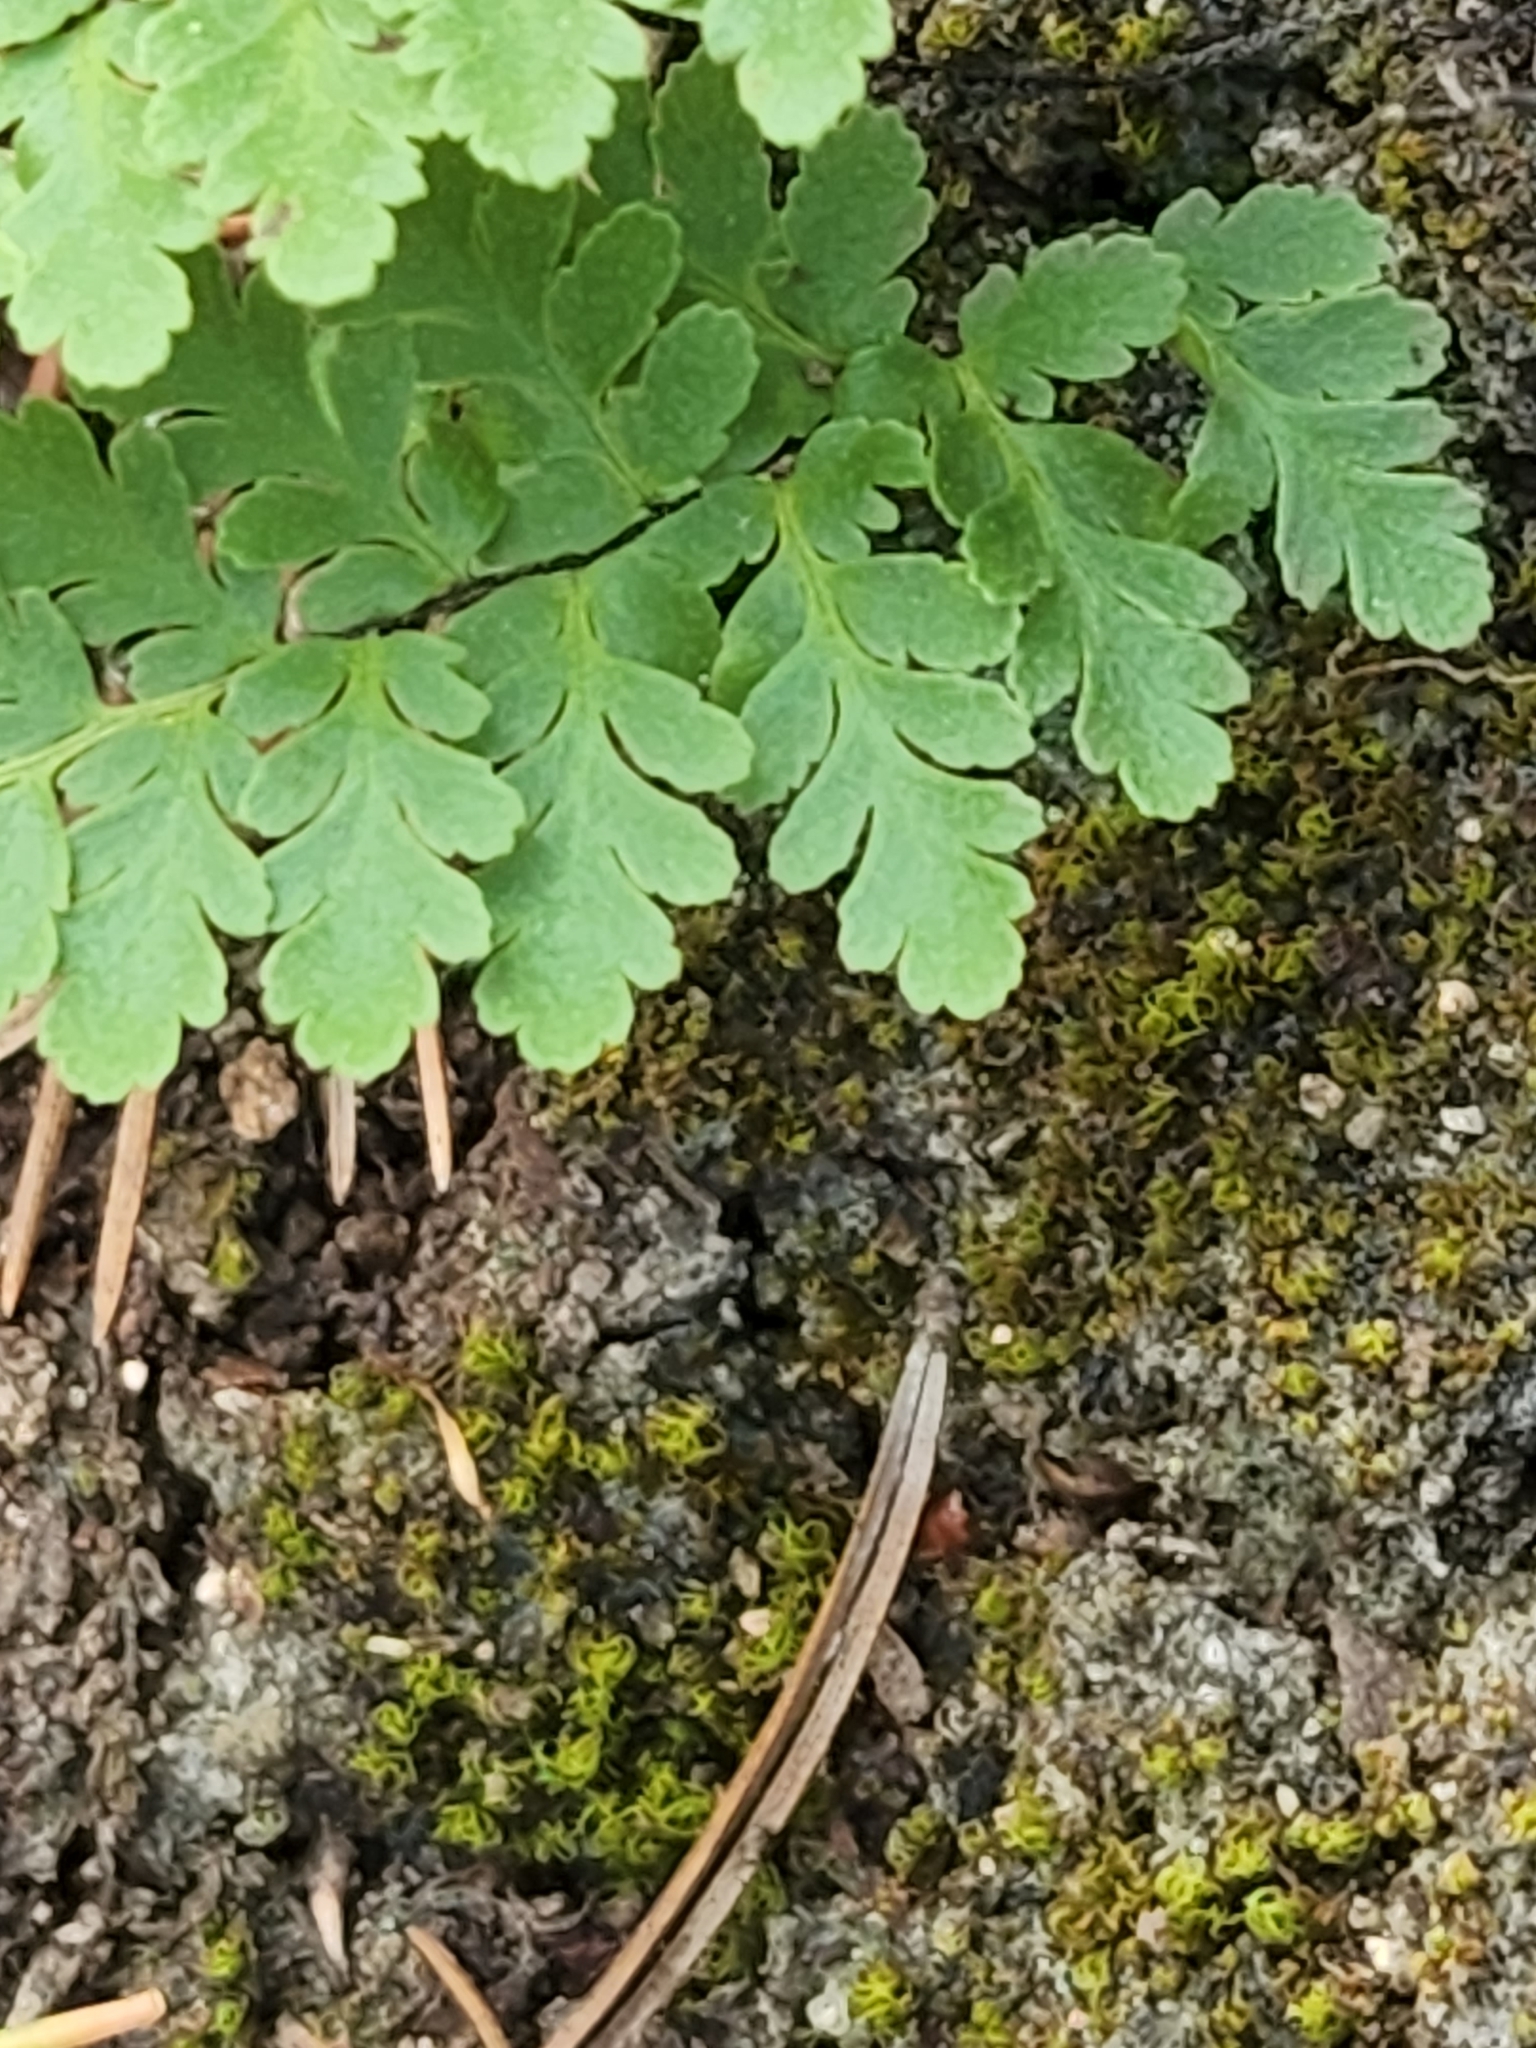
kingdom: Plantae
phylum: Tracheophyta
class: Polypodiopsida
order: Polypodiales
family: Pteridaceae
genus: Myriopteris
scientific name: Myriopteris alabamensis
